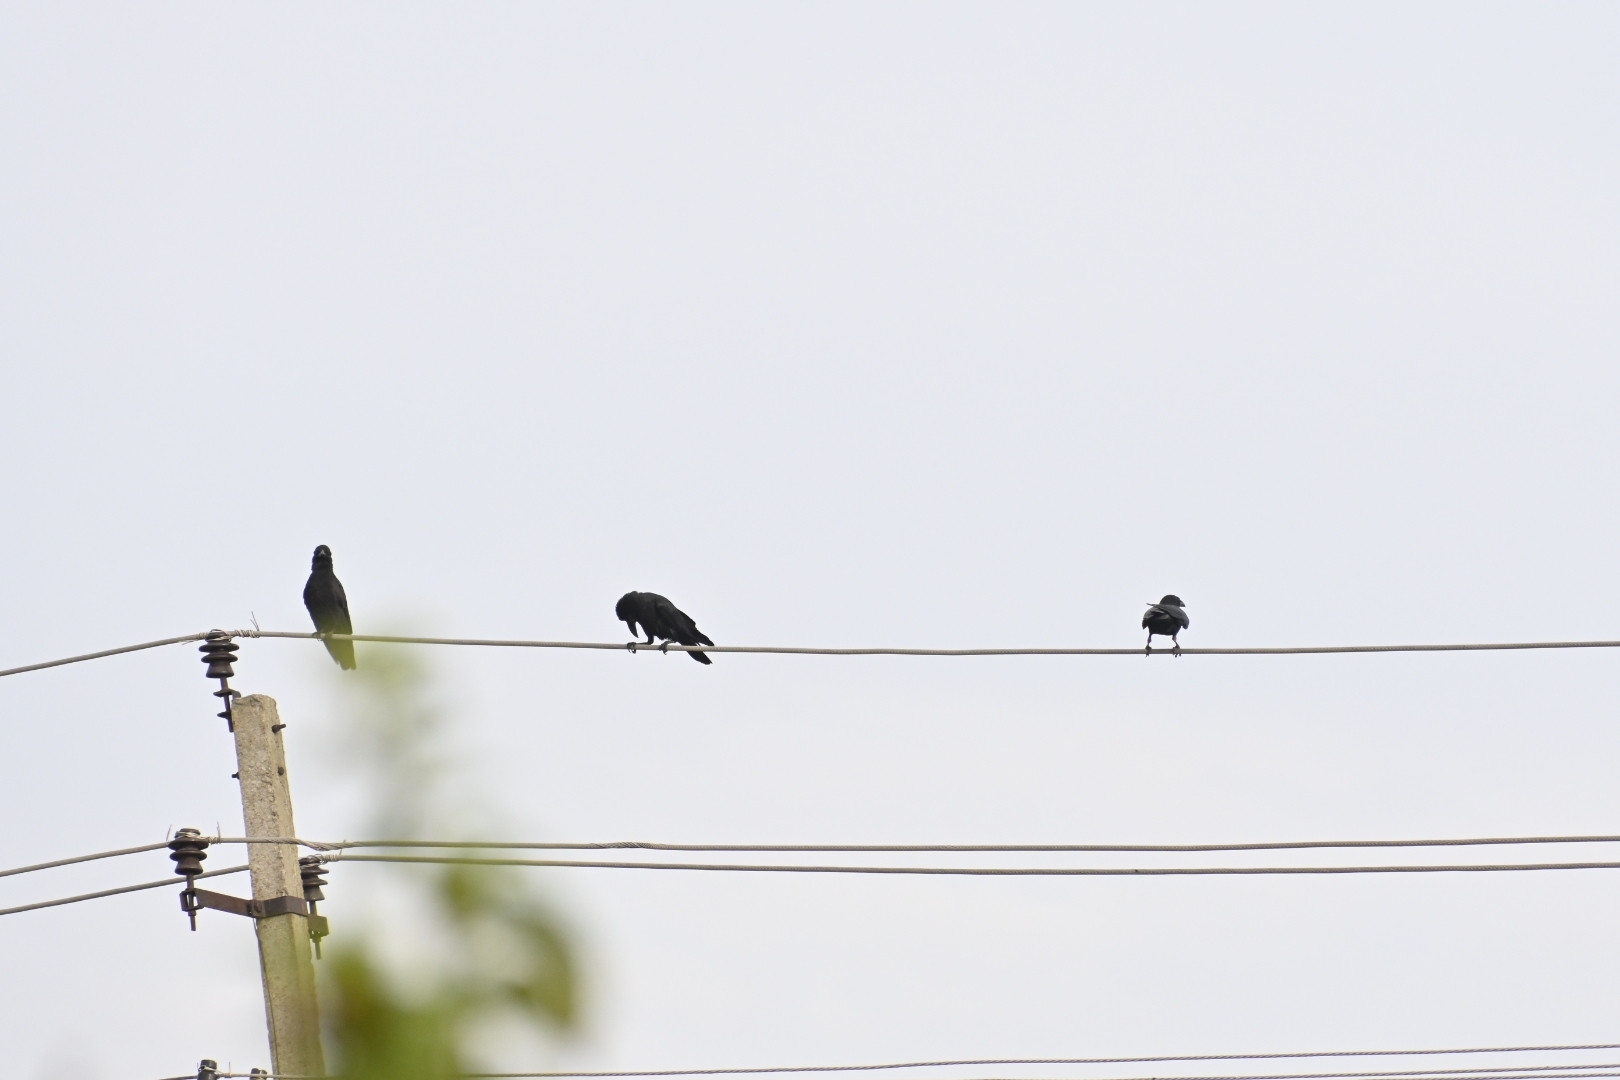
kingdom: Animalia
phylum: Chordata
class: Aves
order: Passeriformes
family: Corvidae
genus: Corvus
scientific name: Corvus macrorhynchos
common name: Large-billed crow
